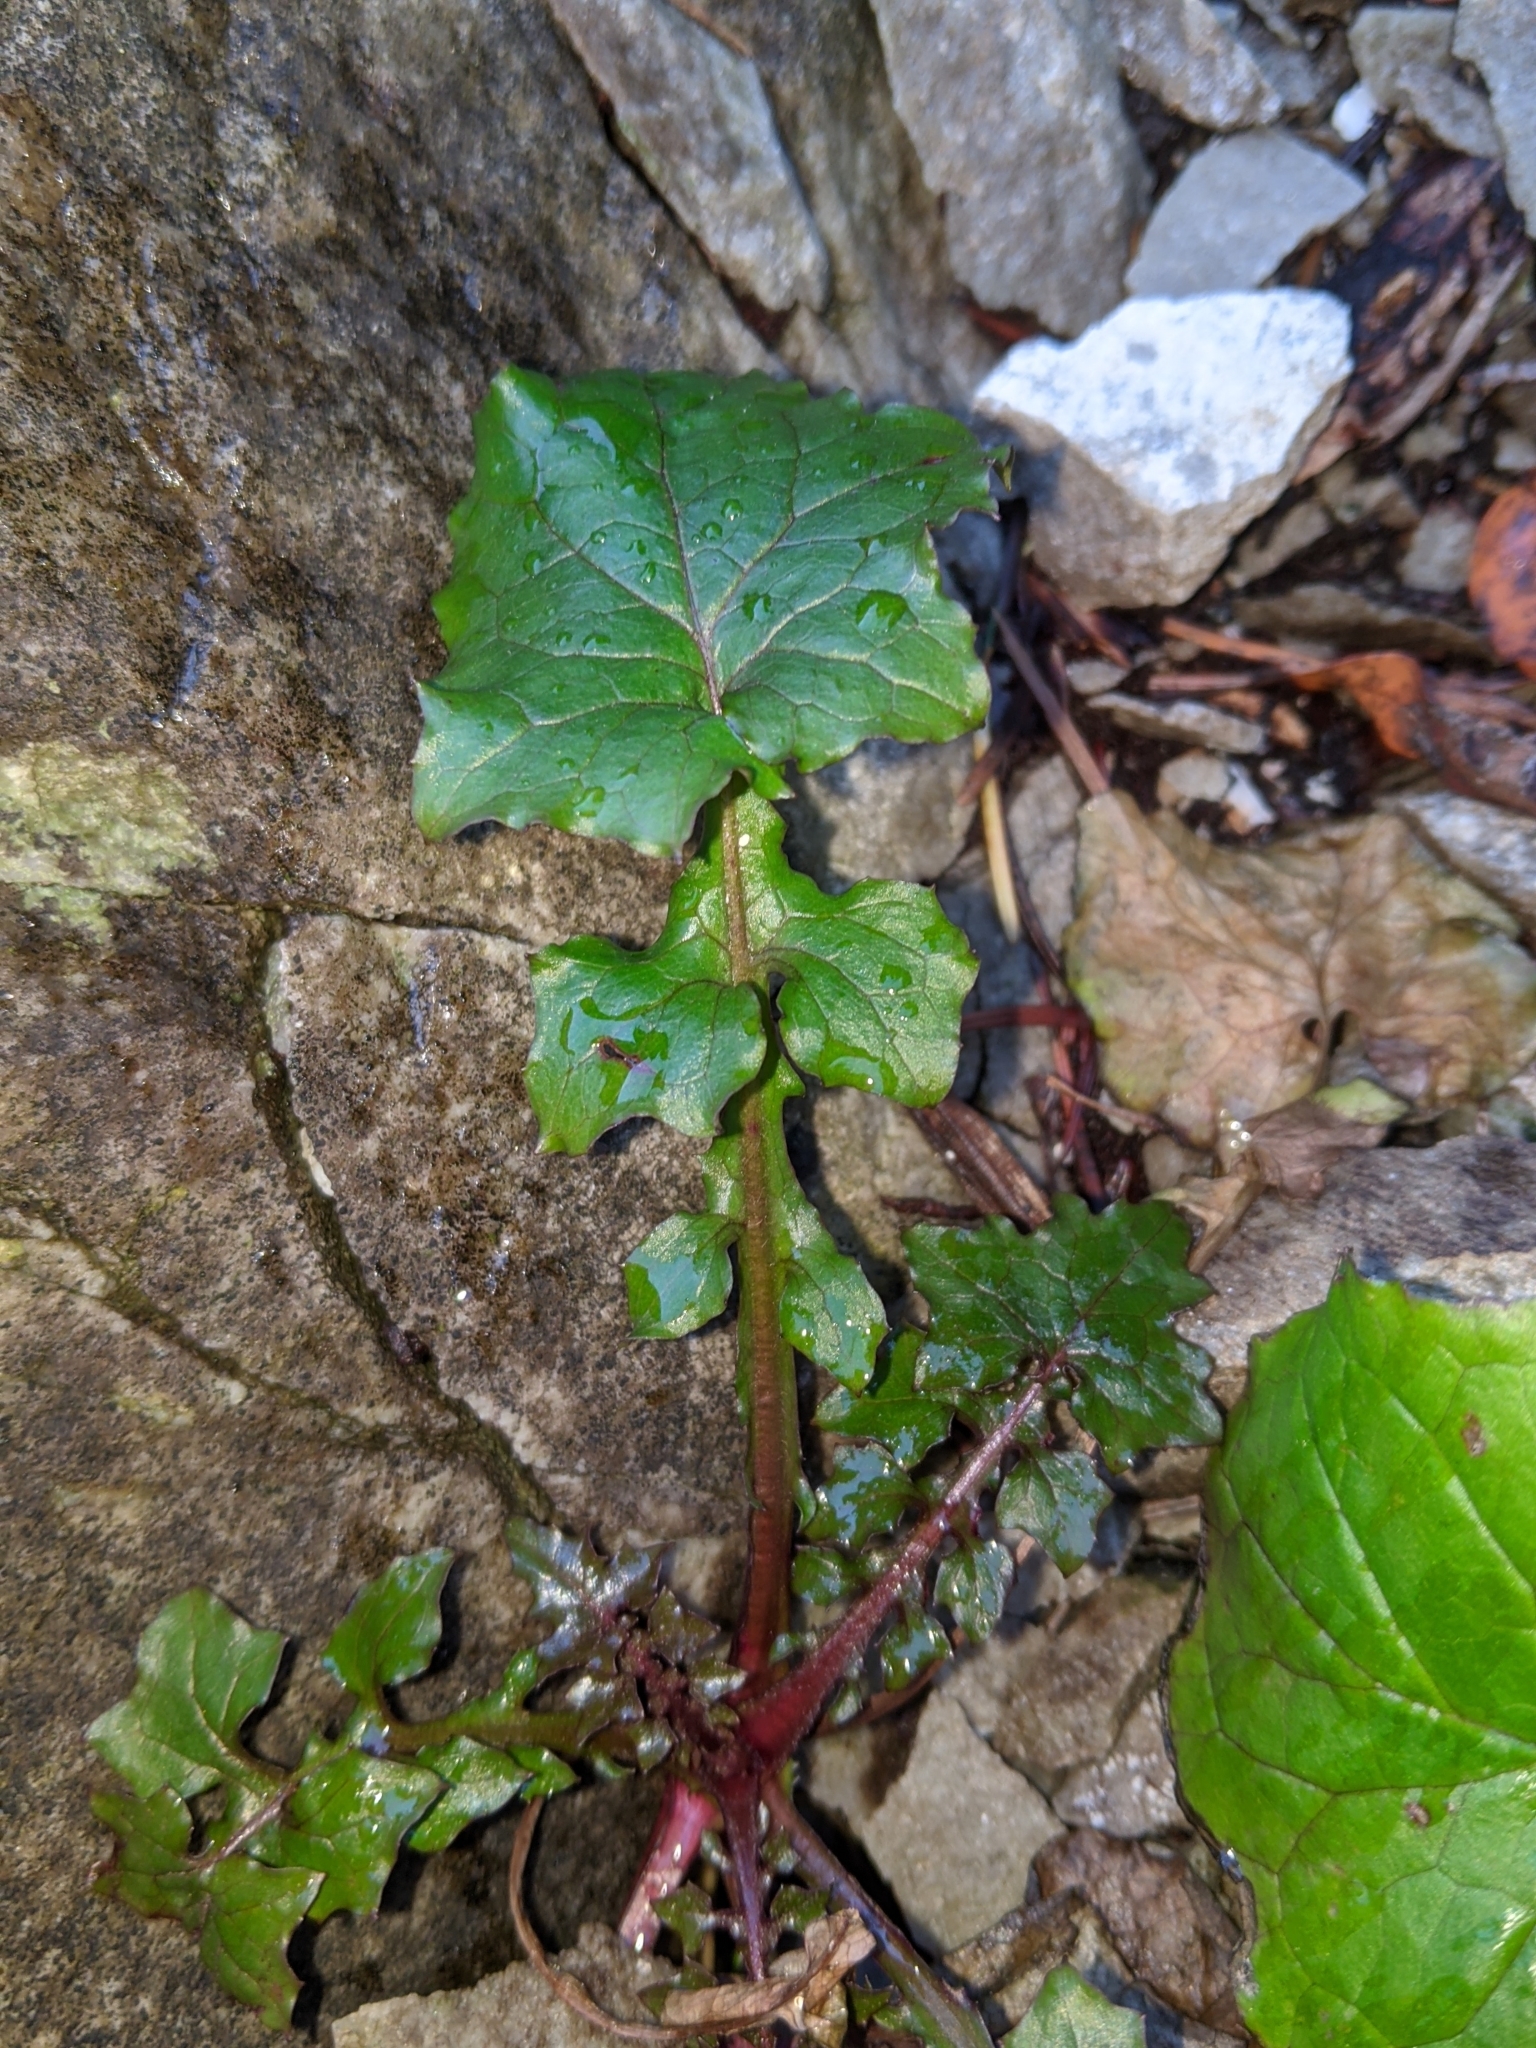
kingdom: Plantae
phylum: Tracheophyta
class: Magnoliopsida
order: Asterales
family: Asteraceae
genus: Mycelis
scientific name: Mycelis muralis
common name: Wall lettuce
